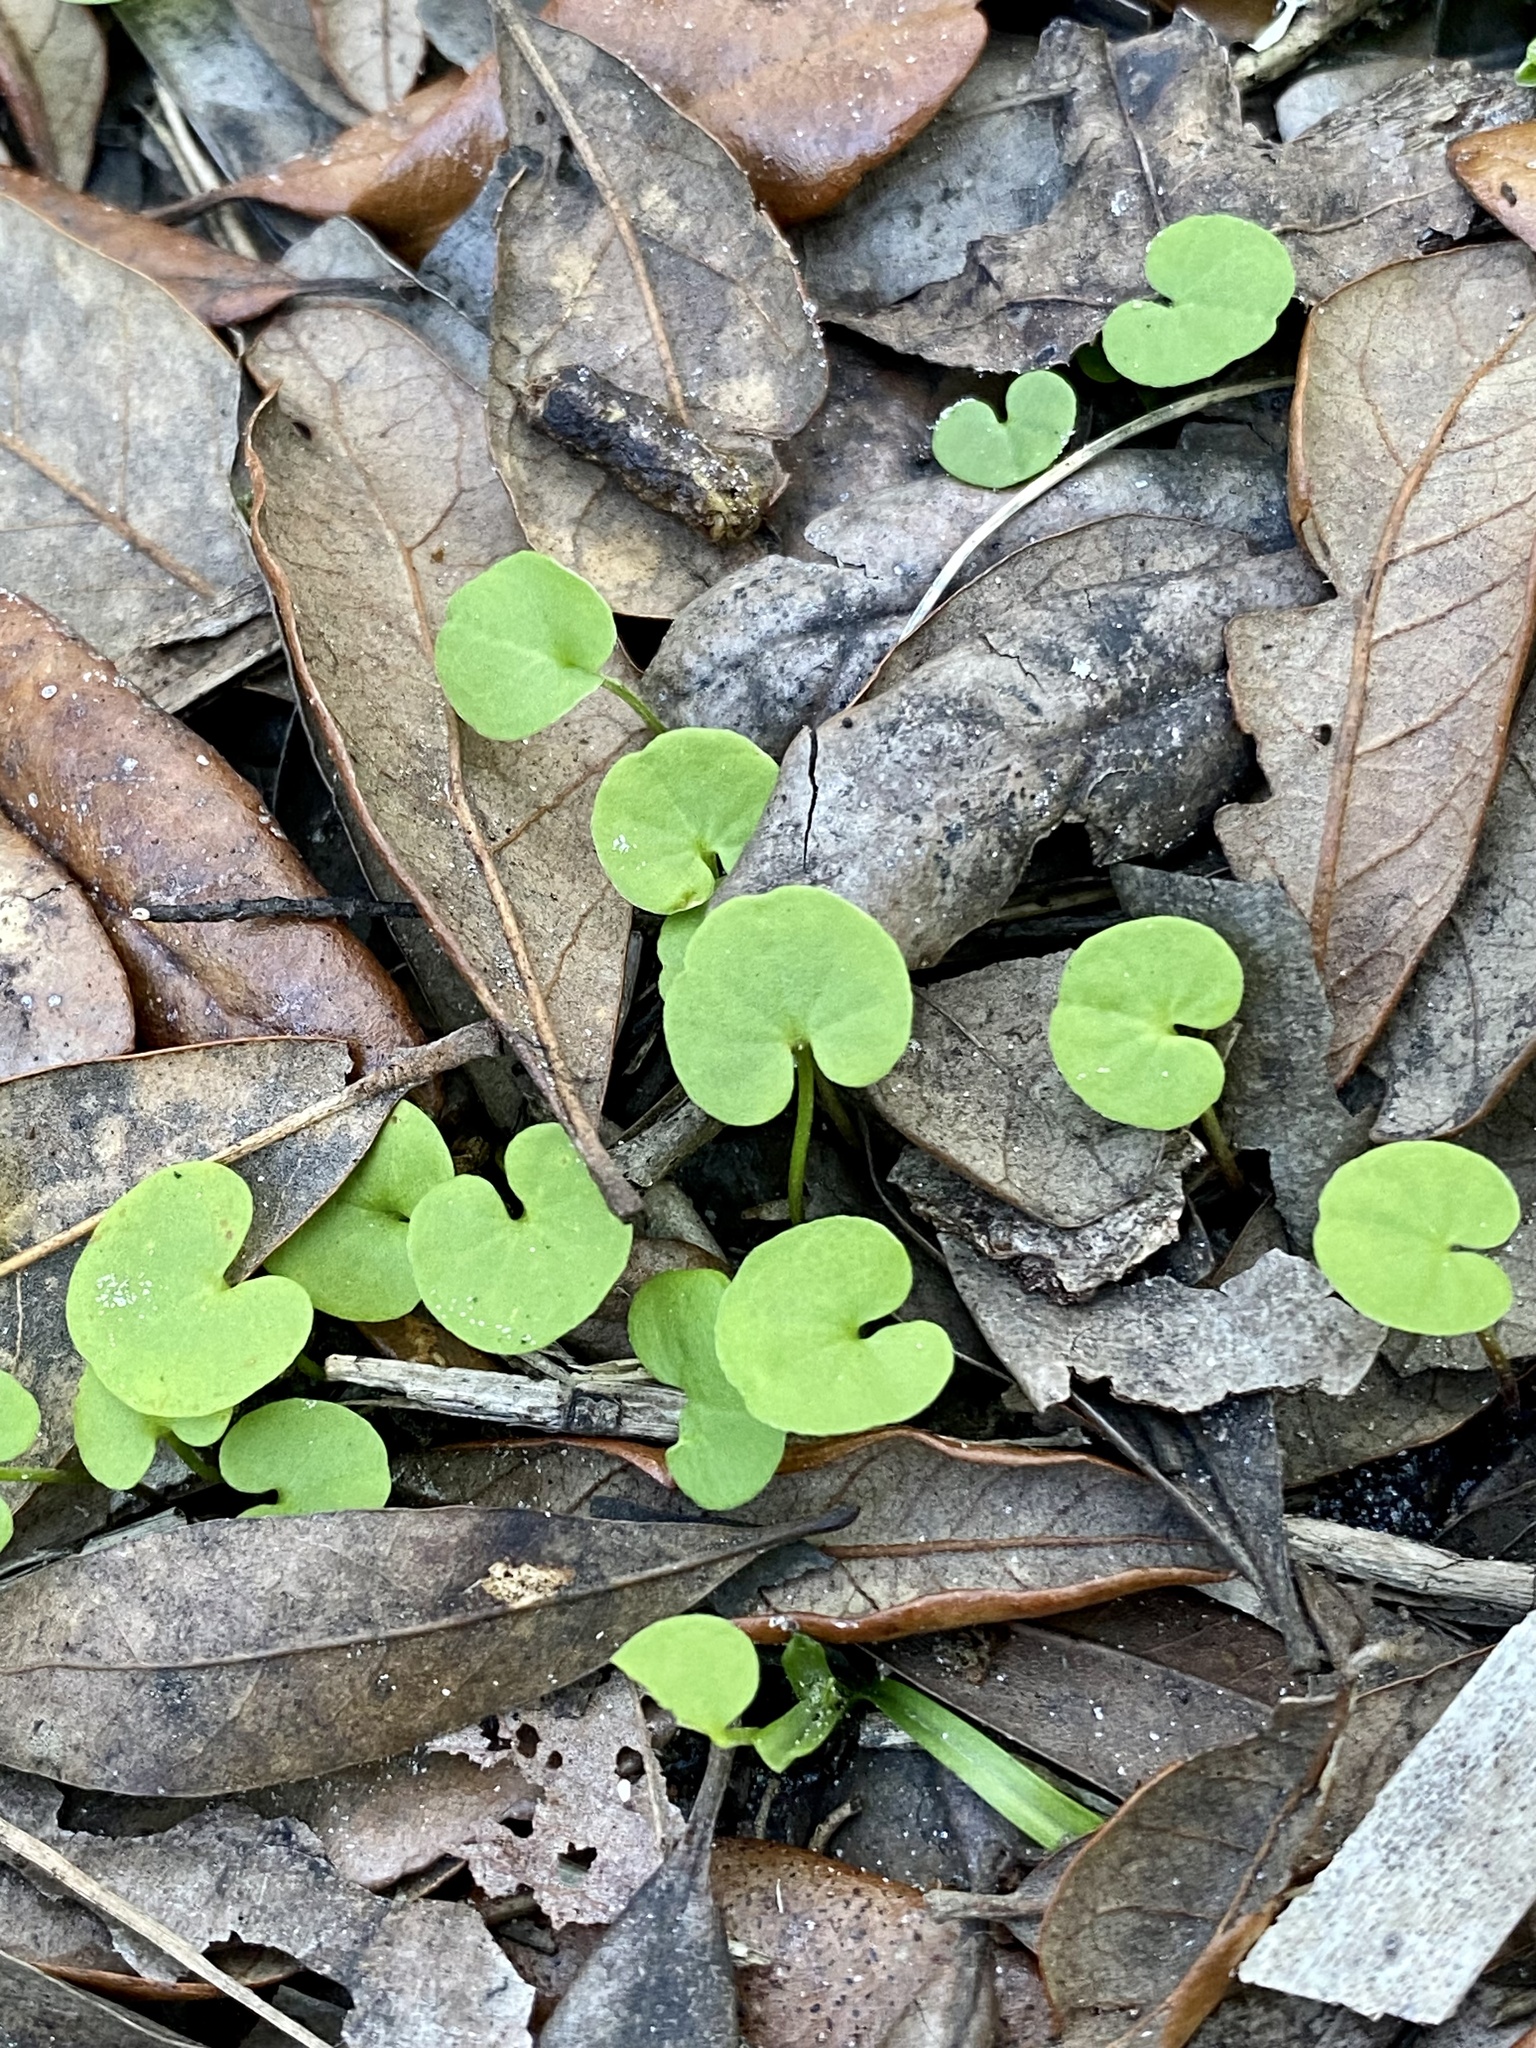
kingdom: Plantae
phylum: Tracheophyta
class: Magnoliopsida
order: Solanales
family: Convolvulaceae
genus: Dichondra
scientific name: Dichondra carolinensis
